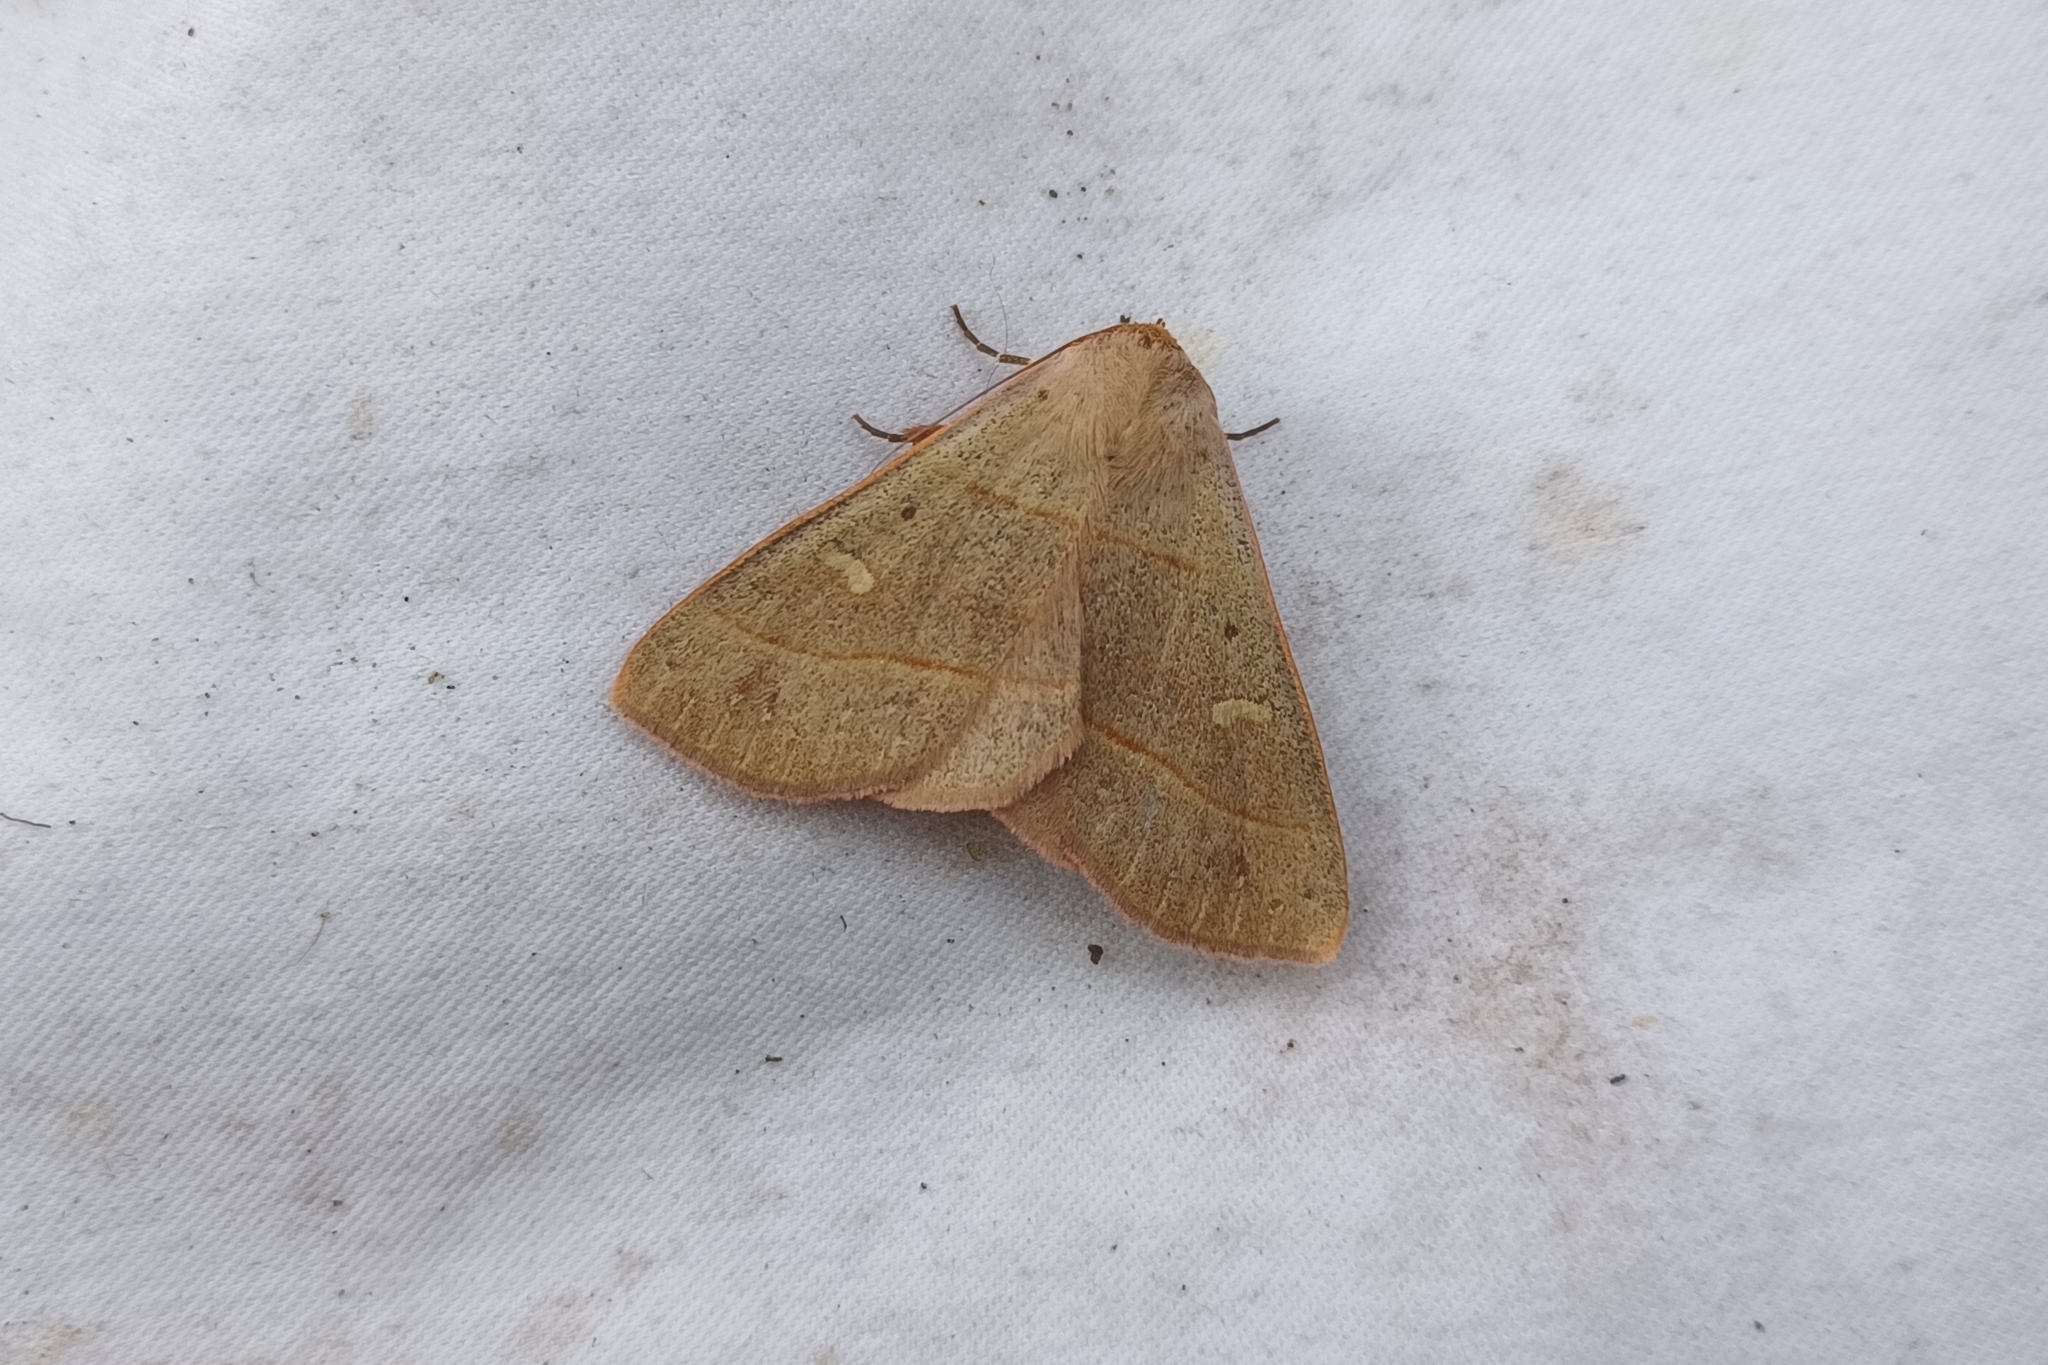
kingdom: Animalia
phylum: Arthropoda
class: Insecta
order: Lepidoptera
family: Erebidae
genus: Panopoda
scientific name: Panopoda rufimargo
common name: Red-lined panopoda moth
